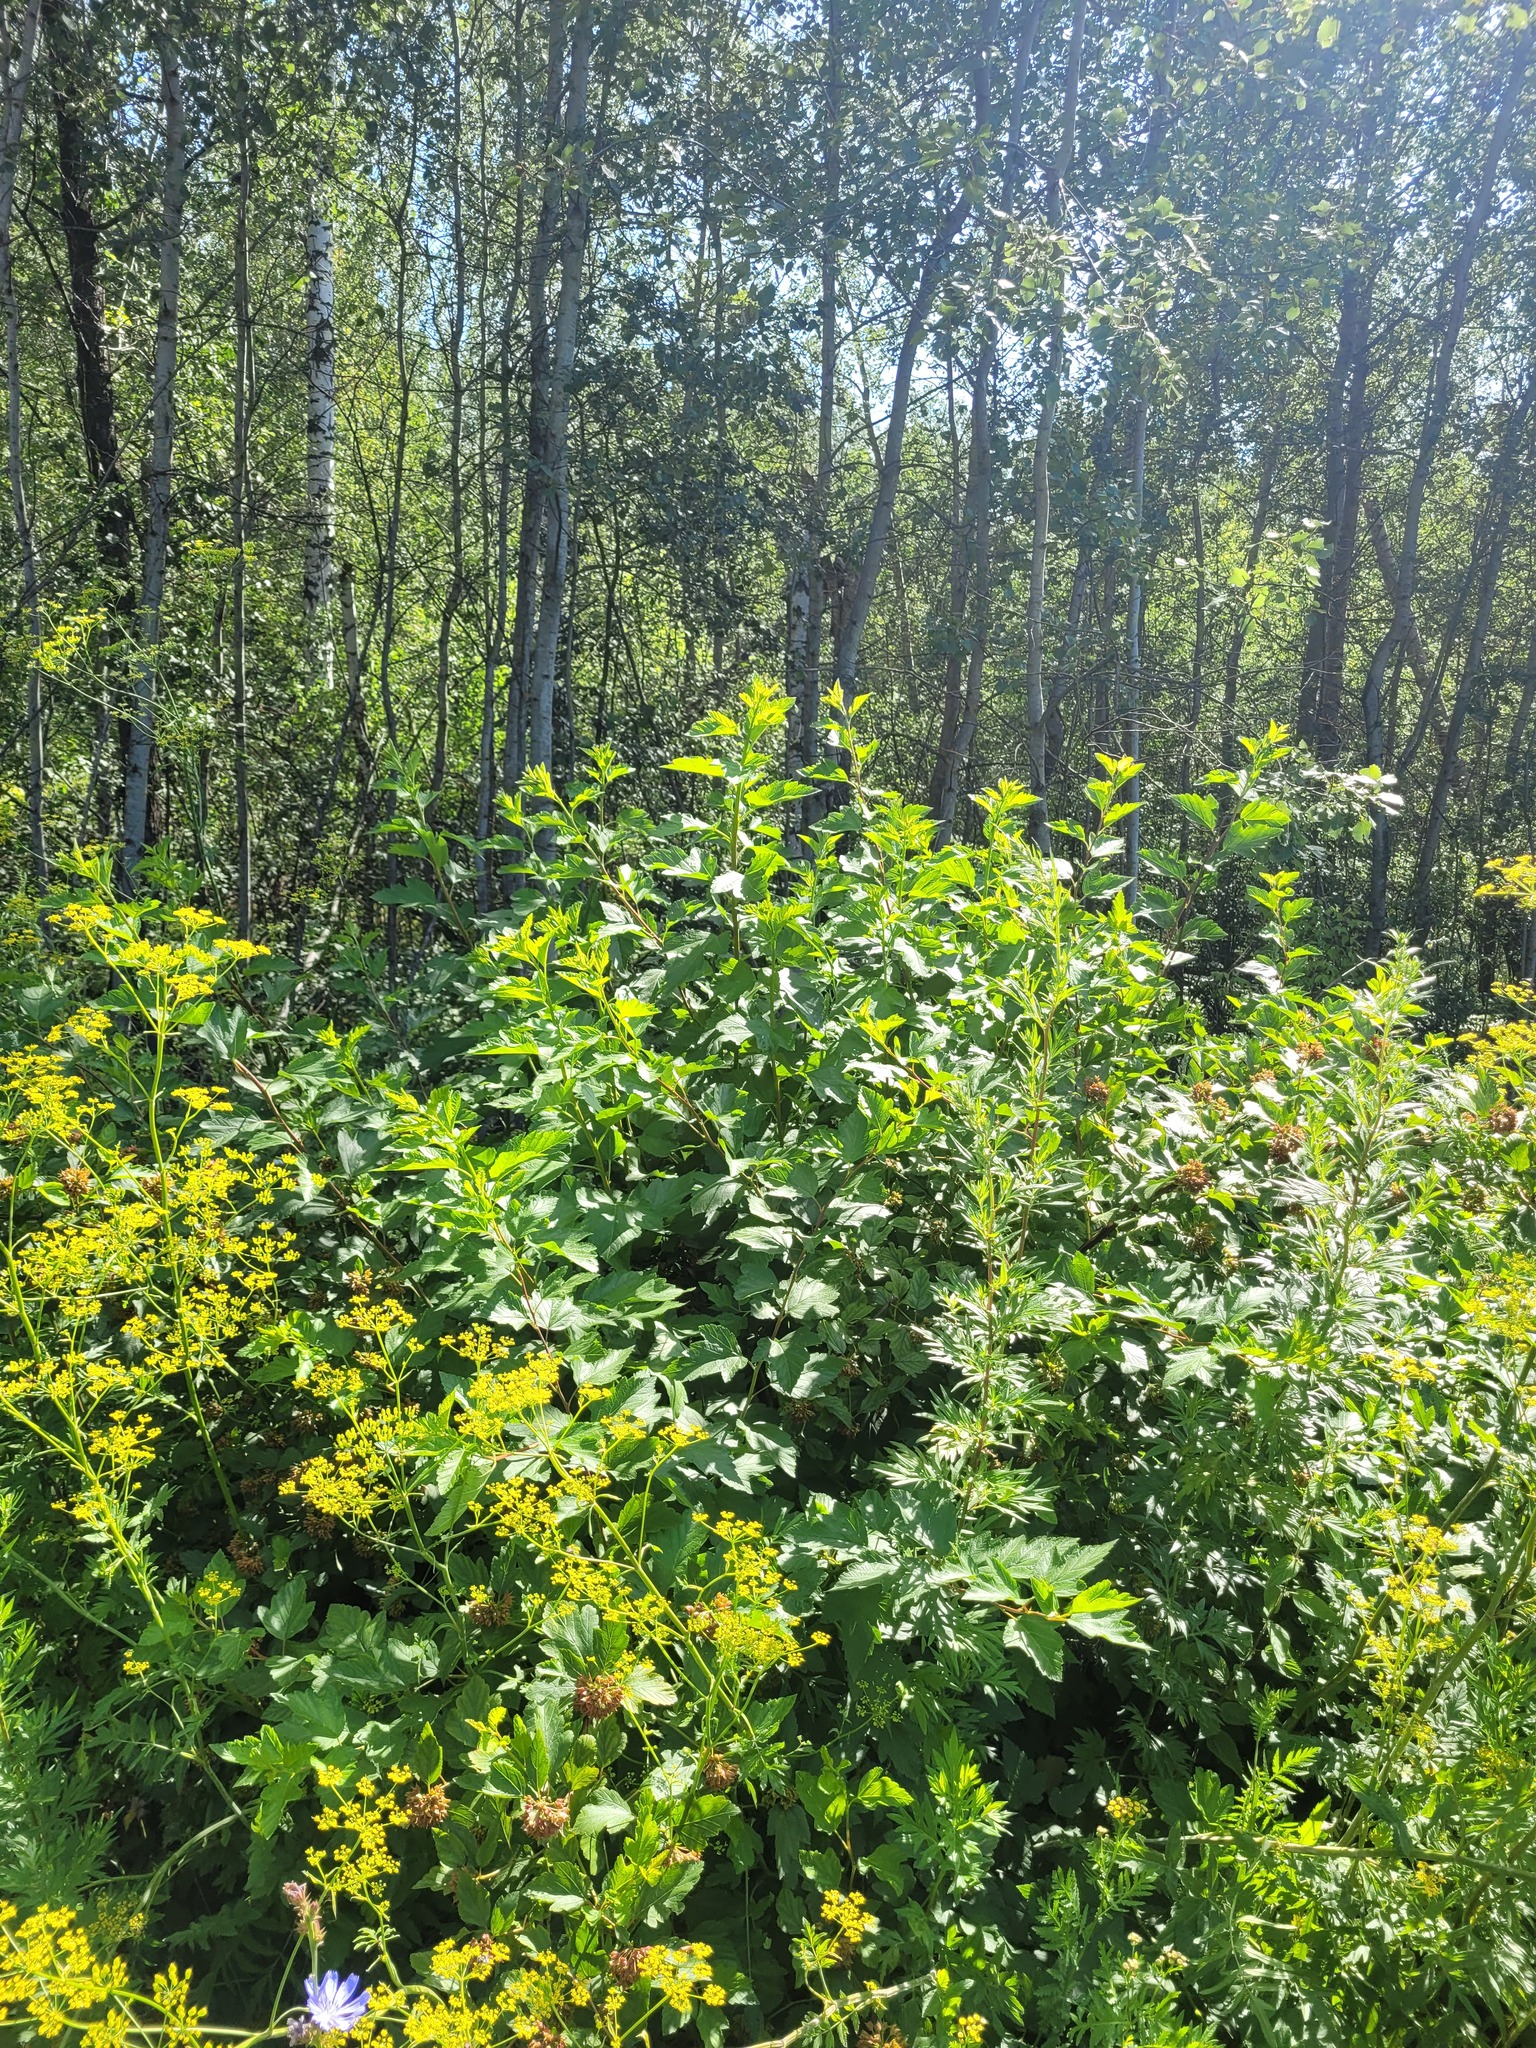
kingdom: Plantae
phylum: Tracheophyta
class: Magnoliopsida
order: Rosales
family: Rosaceae
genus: Physocarpus
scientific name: Physocarpus opulifolius
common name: Ninebark
